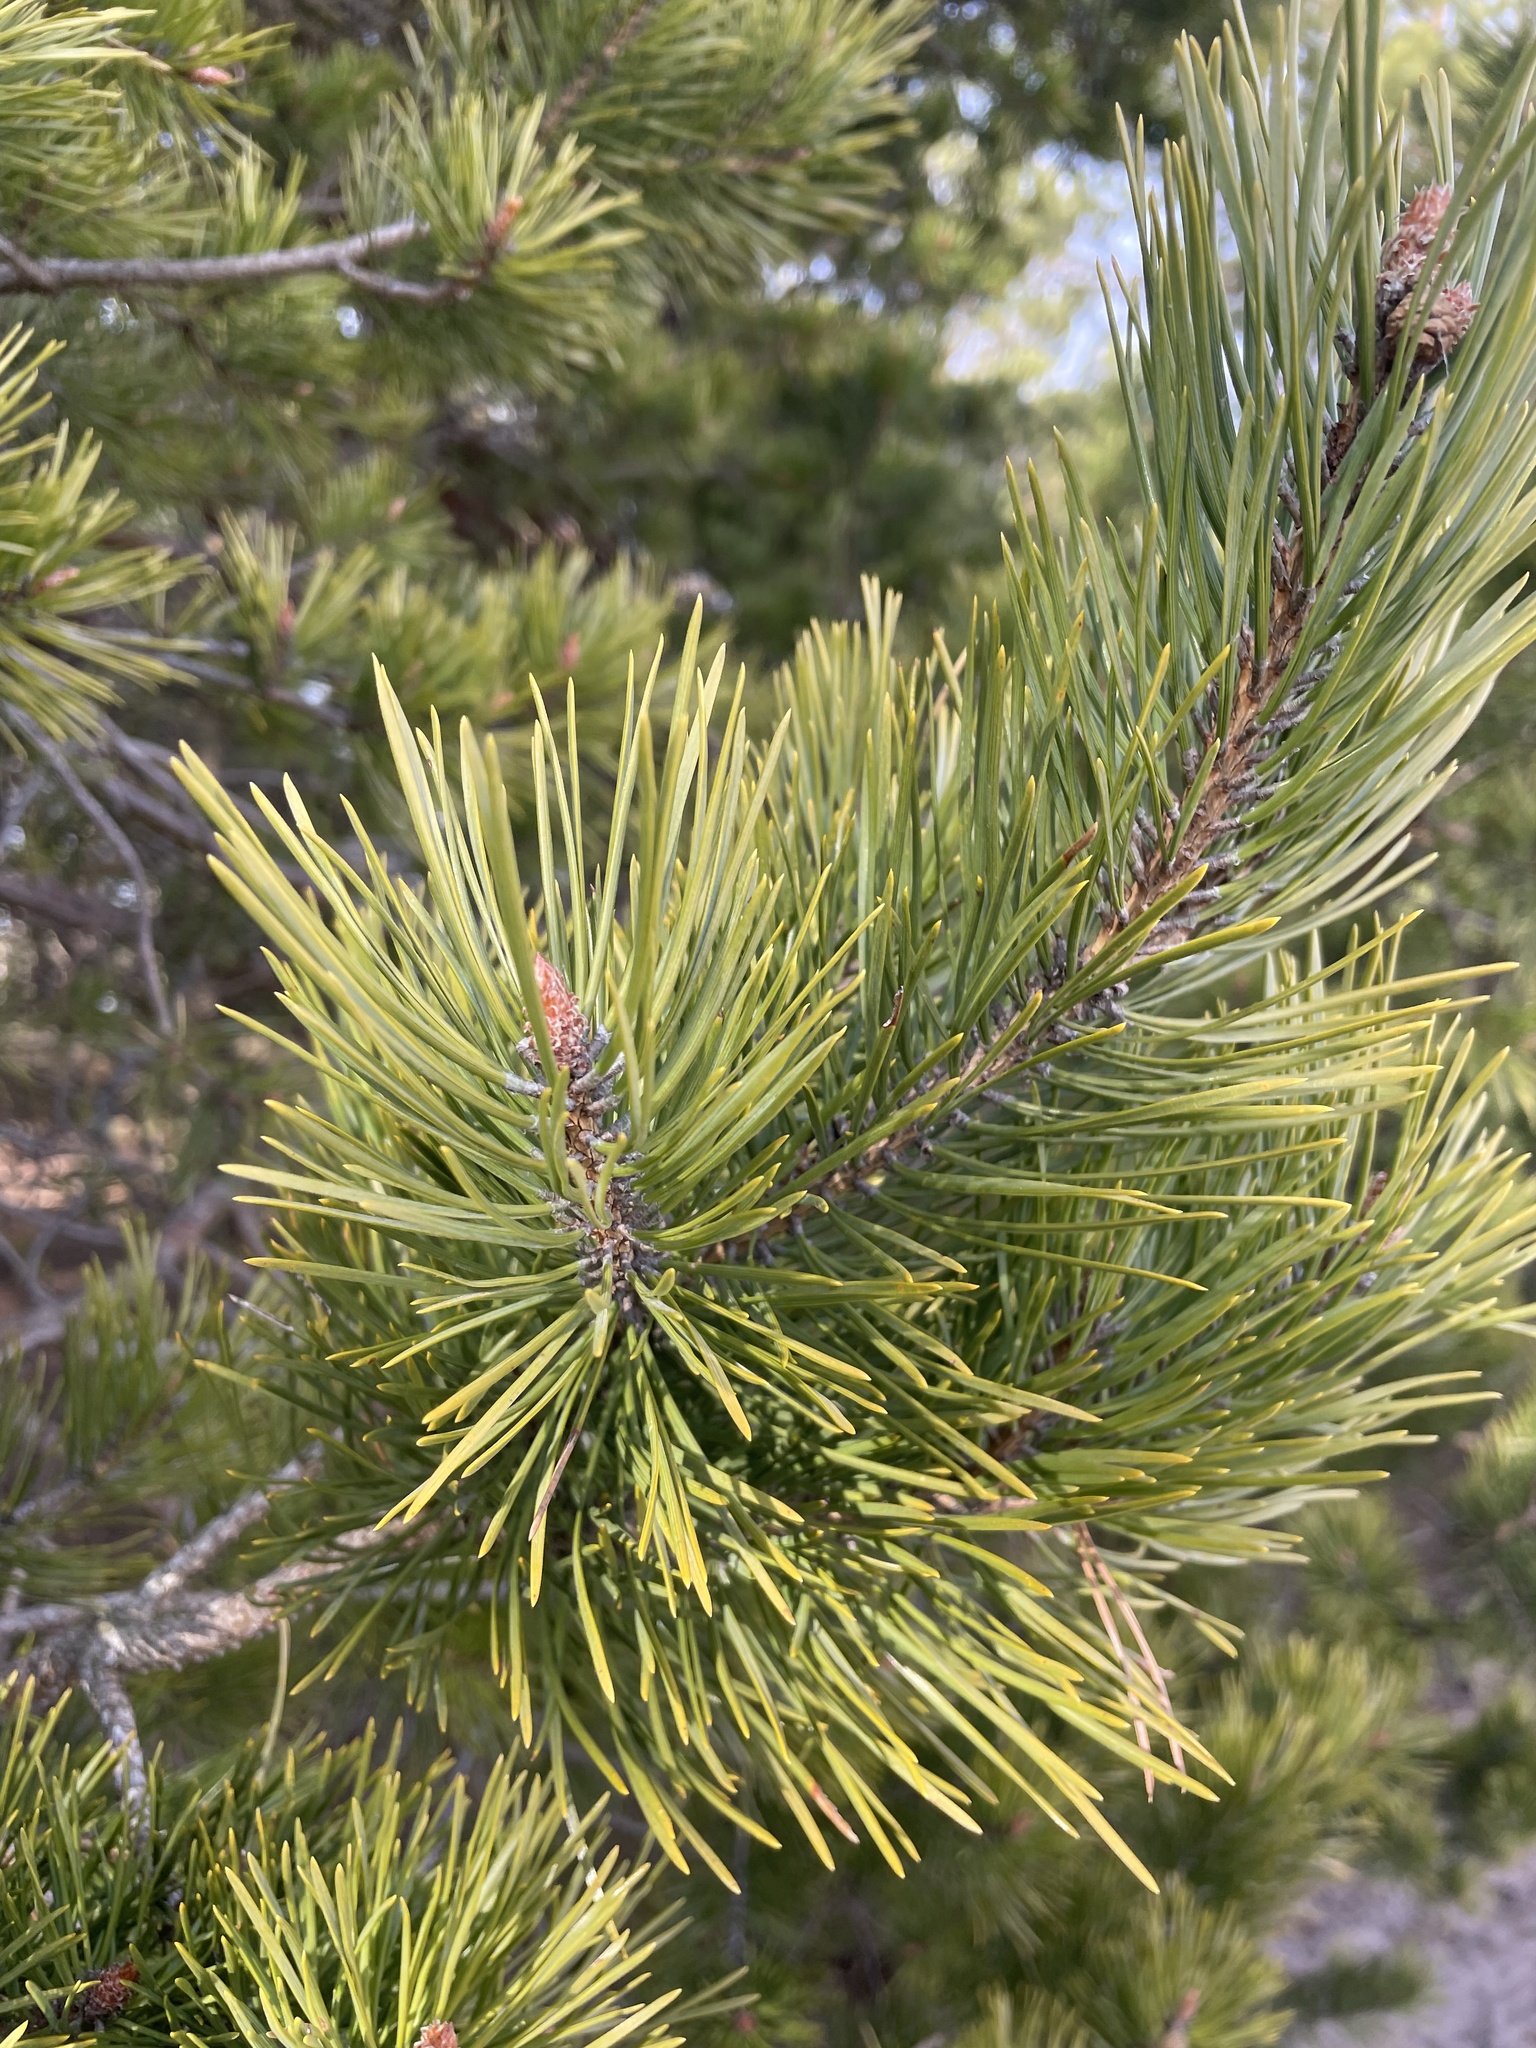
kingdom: Plantae
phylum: Tracheophyta
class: Pinopsida
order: Pinales
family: Pinaceae
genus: Pinus
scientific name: Pinus sylvestris
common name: Scots pine
